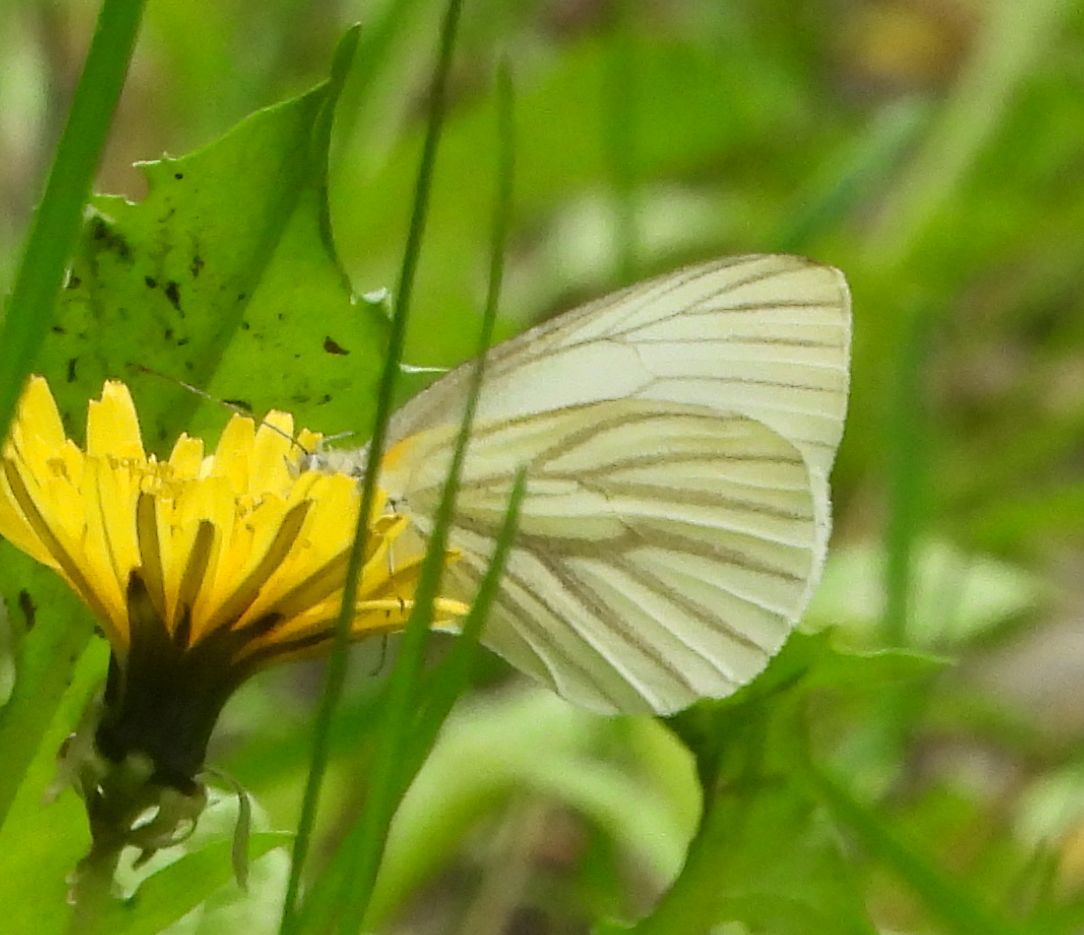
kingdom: Animalia
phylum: Arthropoda
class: Insecta
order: Lepidoptera
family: Pieridae
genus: Pieris
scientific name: Pieris oleracea
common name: Mustard white
